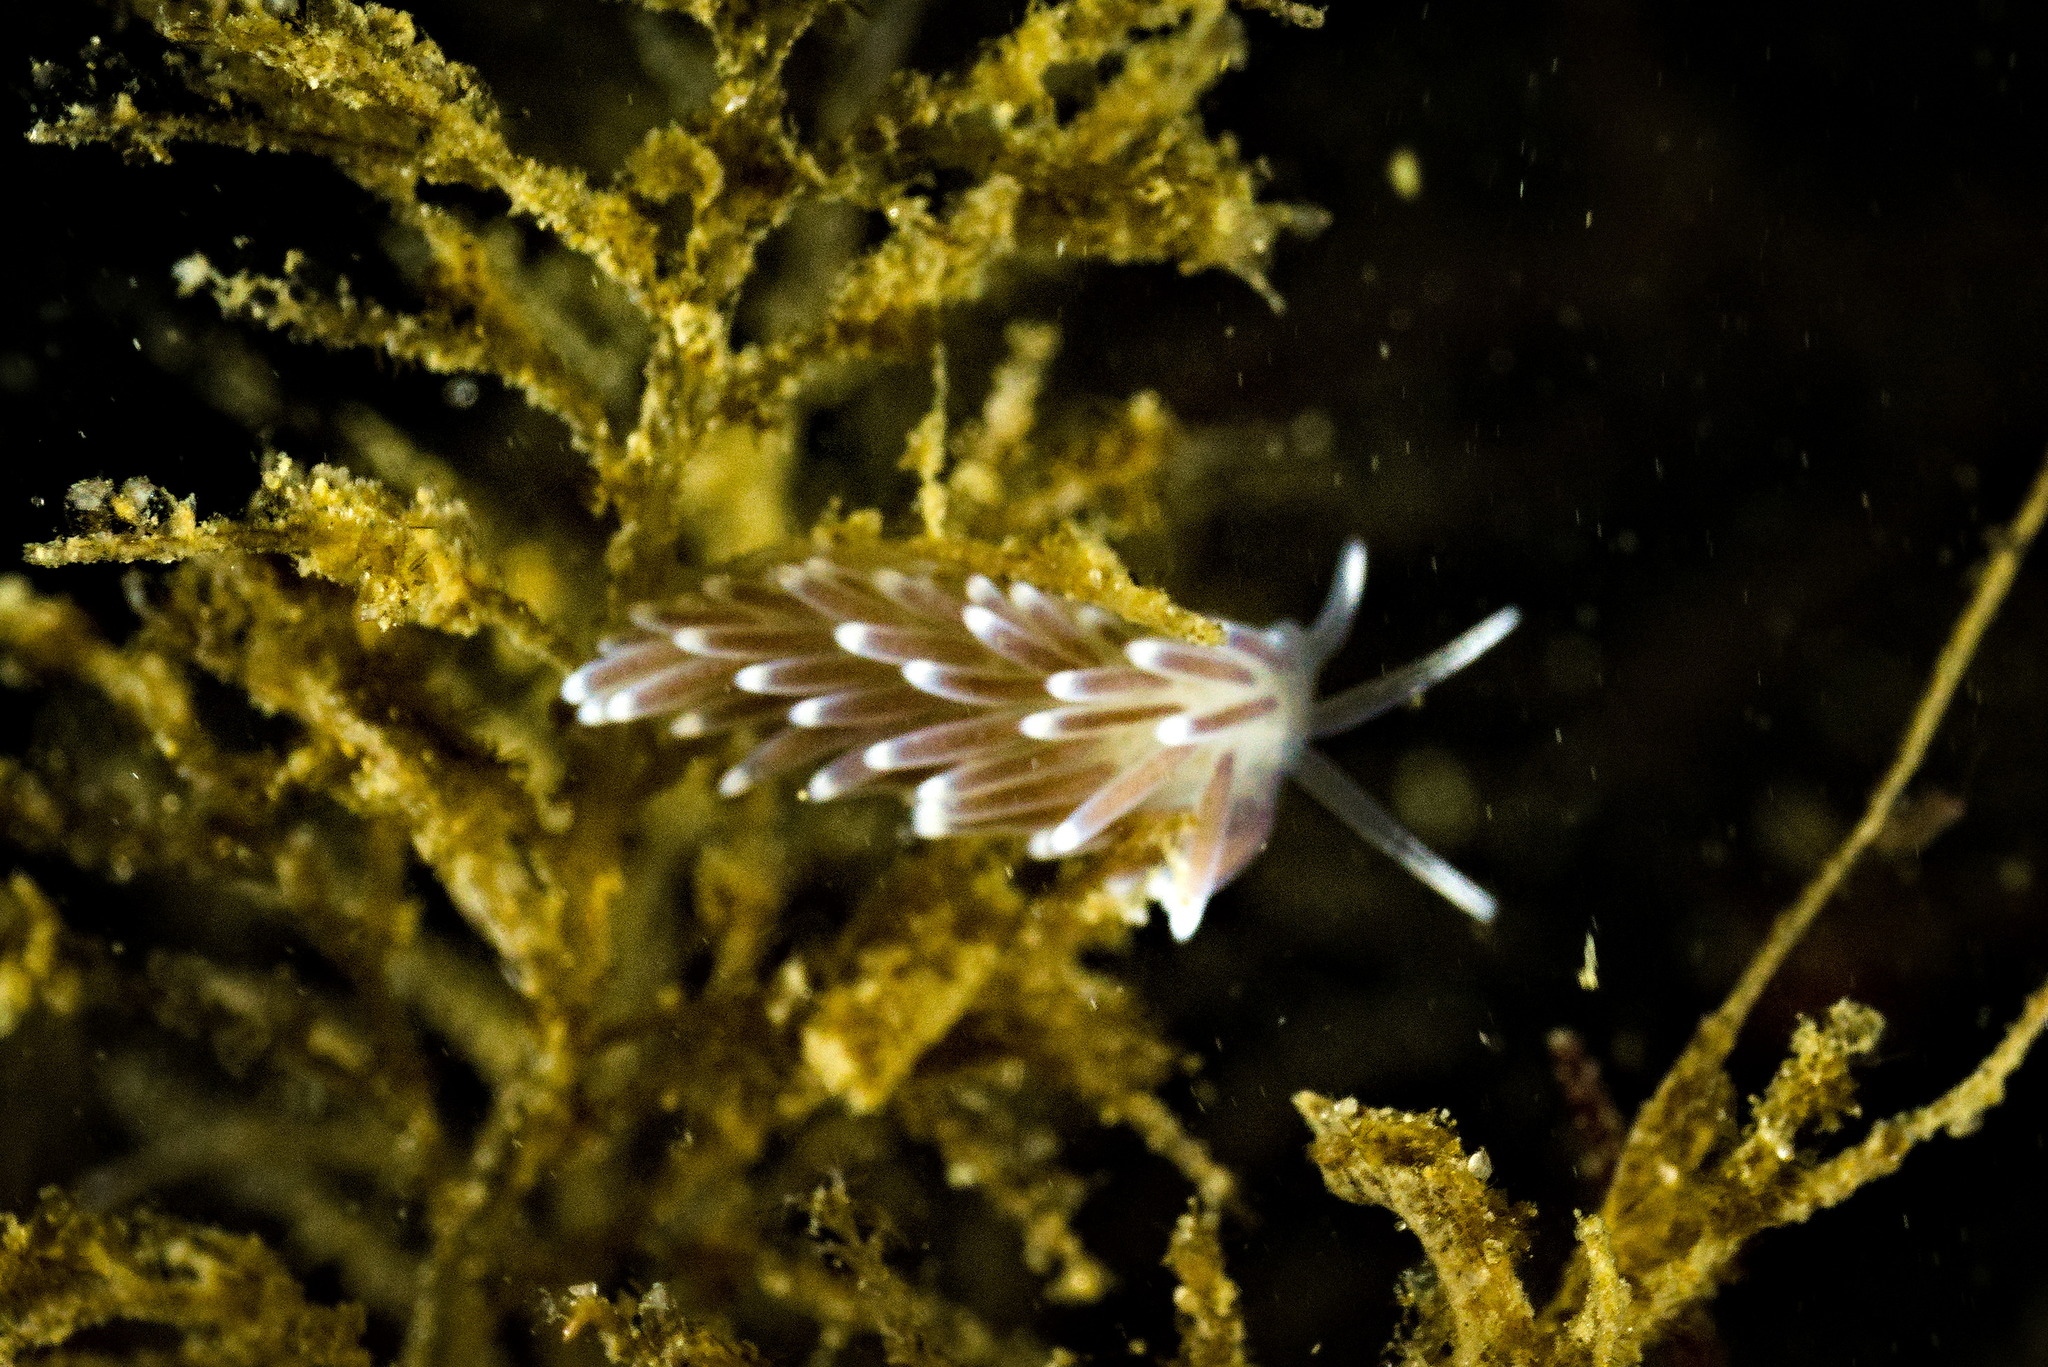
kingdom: Animalia
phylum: Mollusca
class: Gastropoda
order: Nudibranchia
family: Cuthonellidae
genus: Cuthonella
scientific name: Cuthonella concinna
